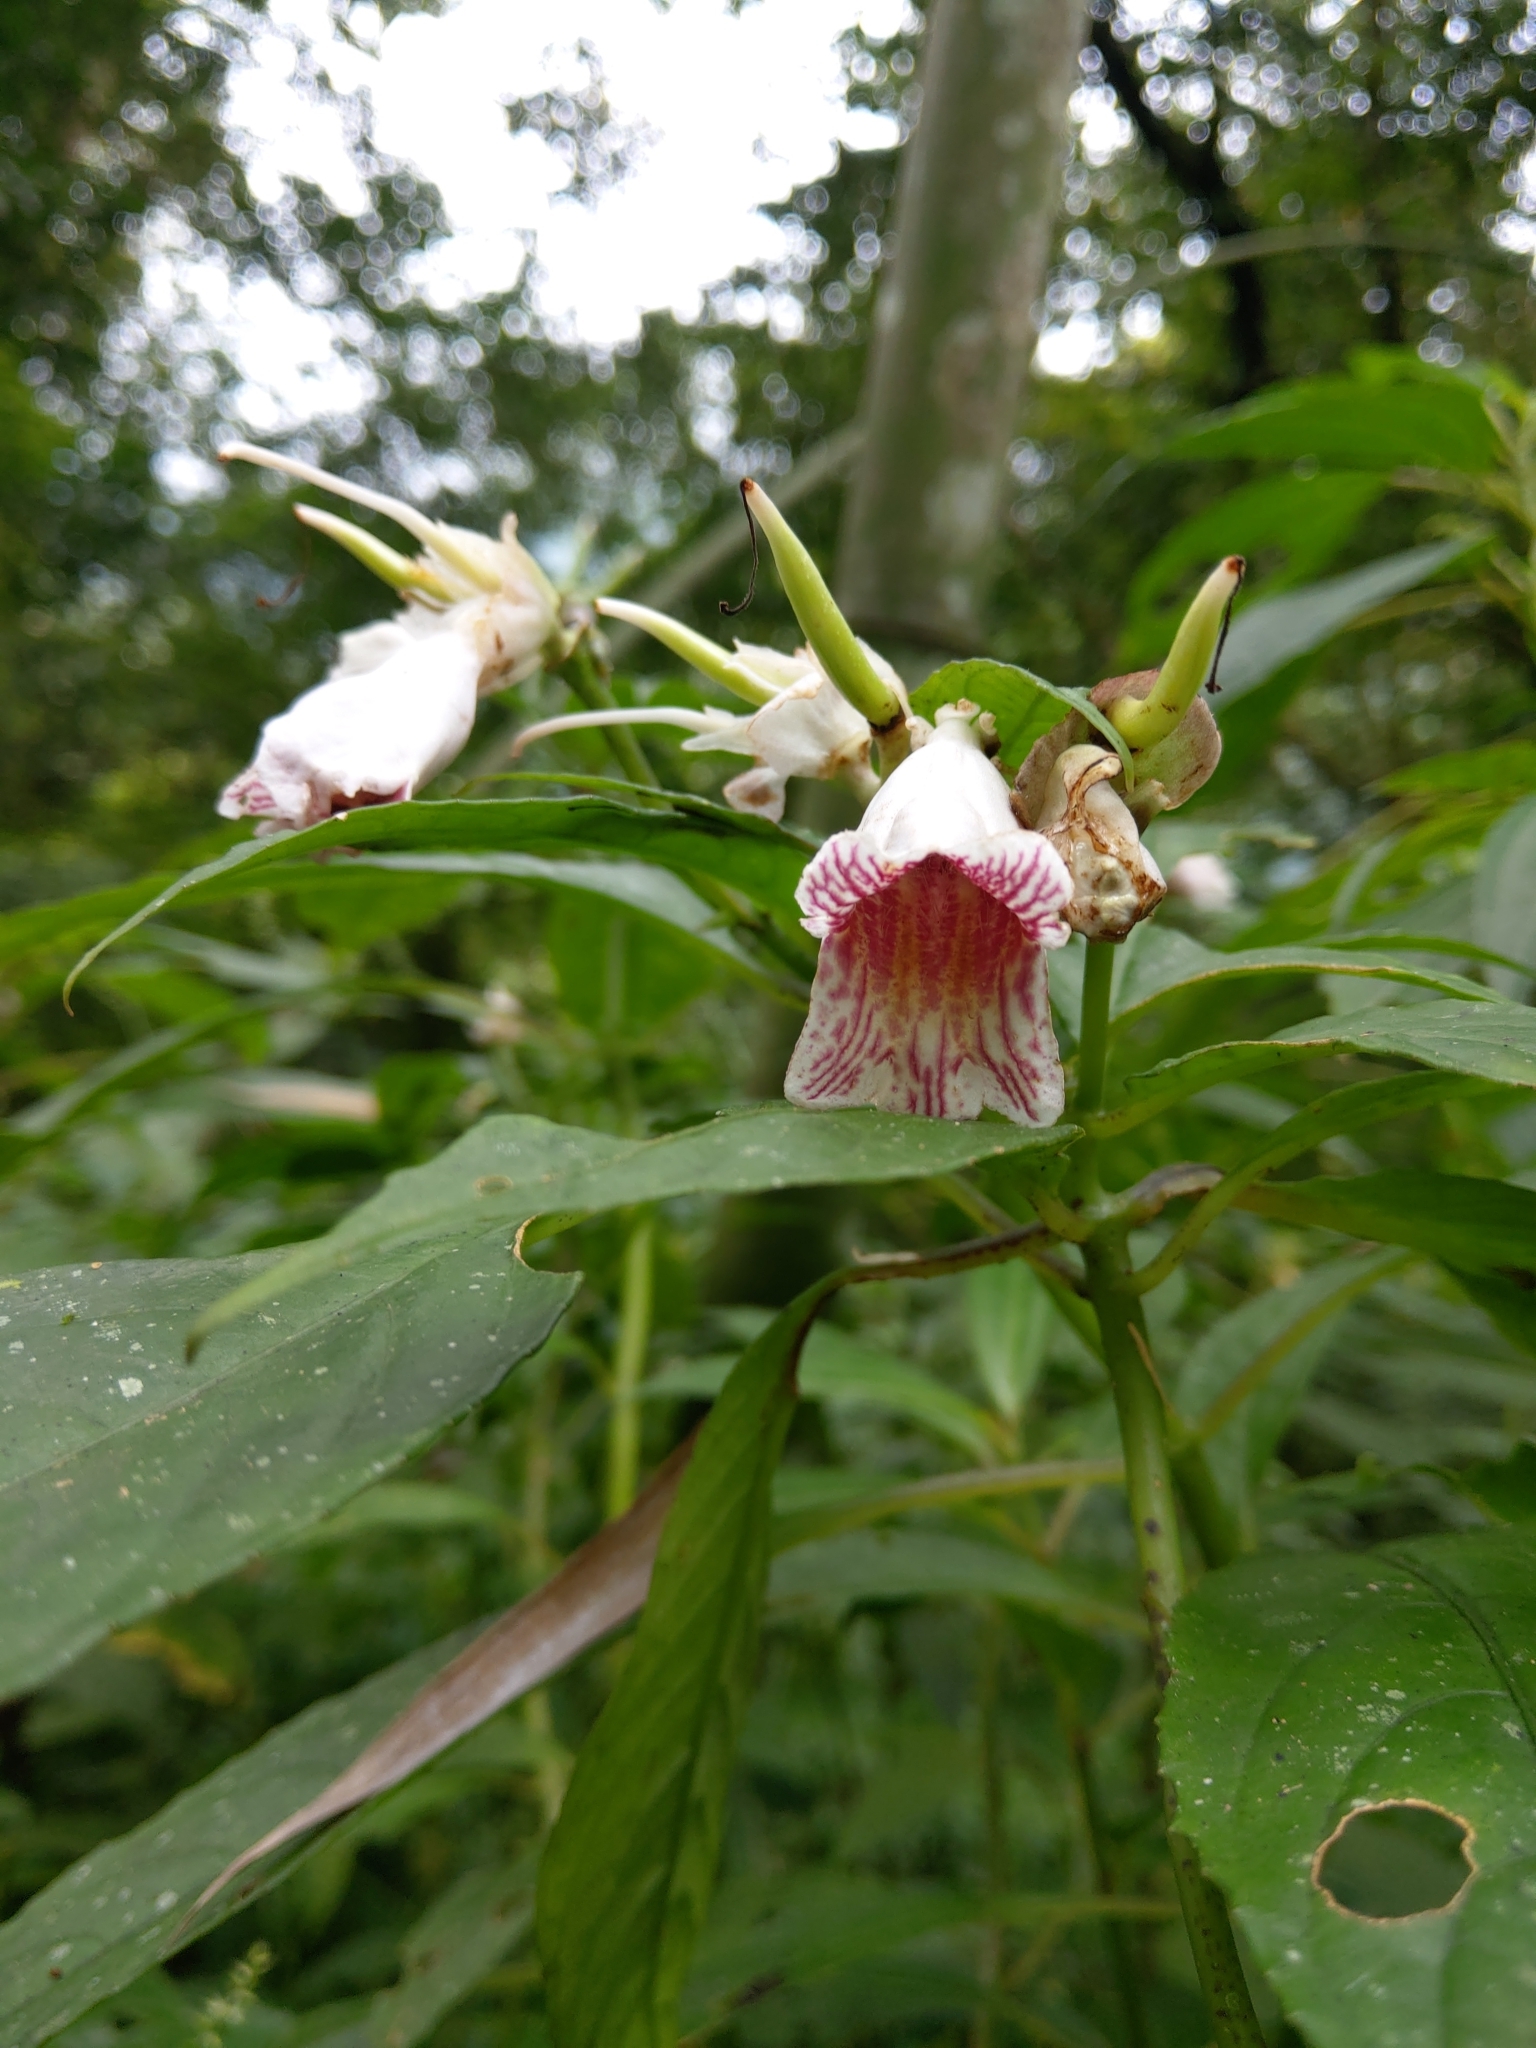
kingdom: Plantae
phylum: Tracheophyta
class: Magnoliopsida
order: Lamiales
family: Gesneriaceae
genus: Hemiboea
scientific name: Hemiboea bicornuta
